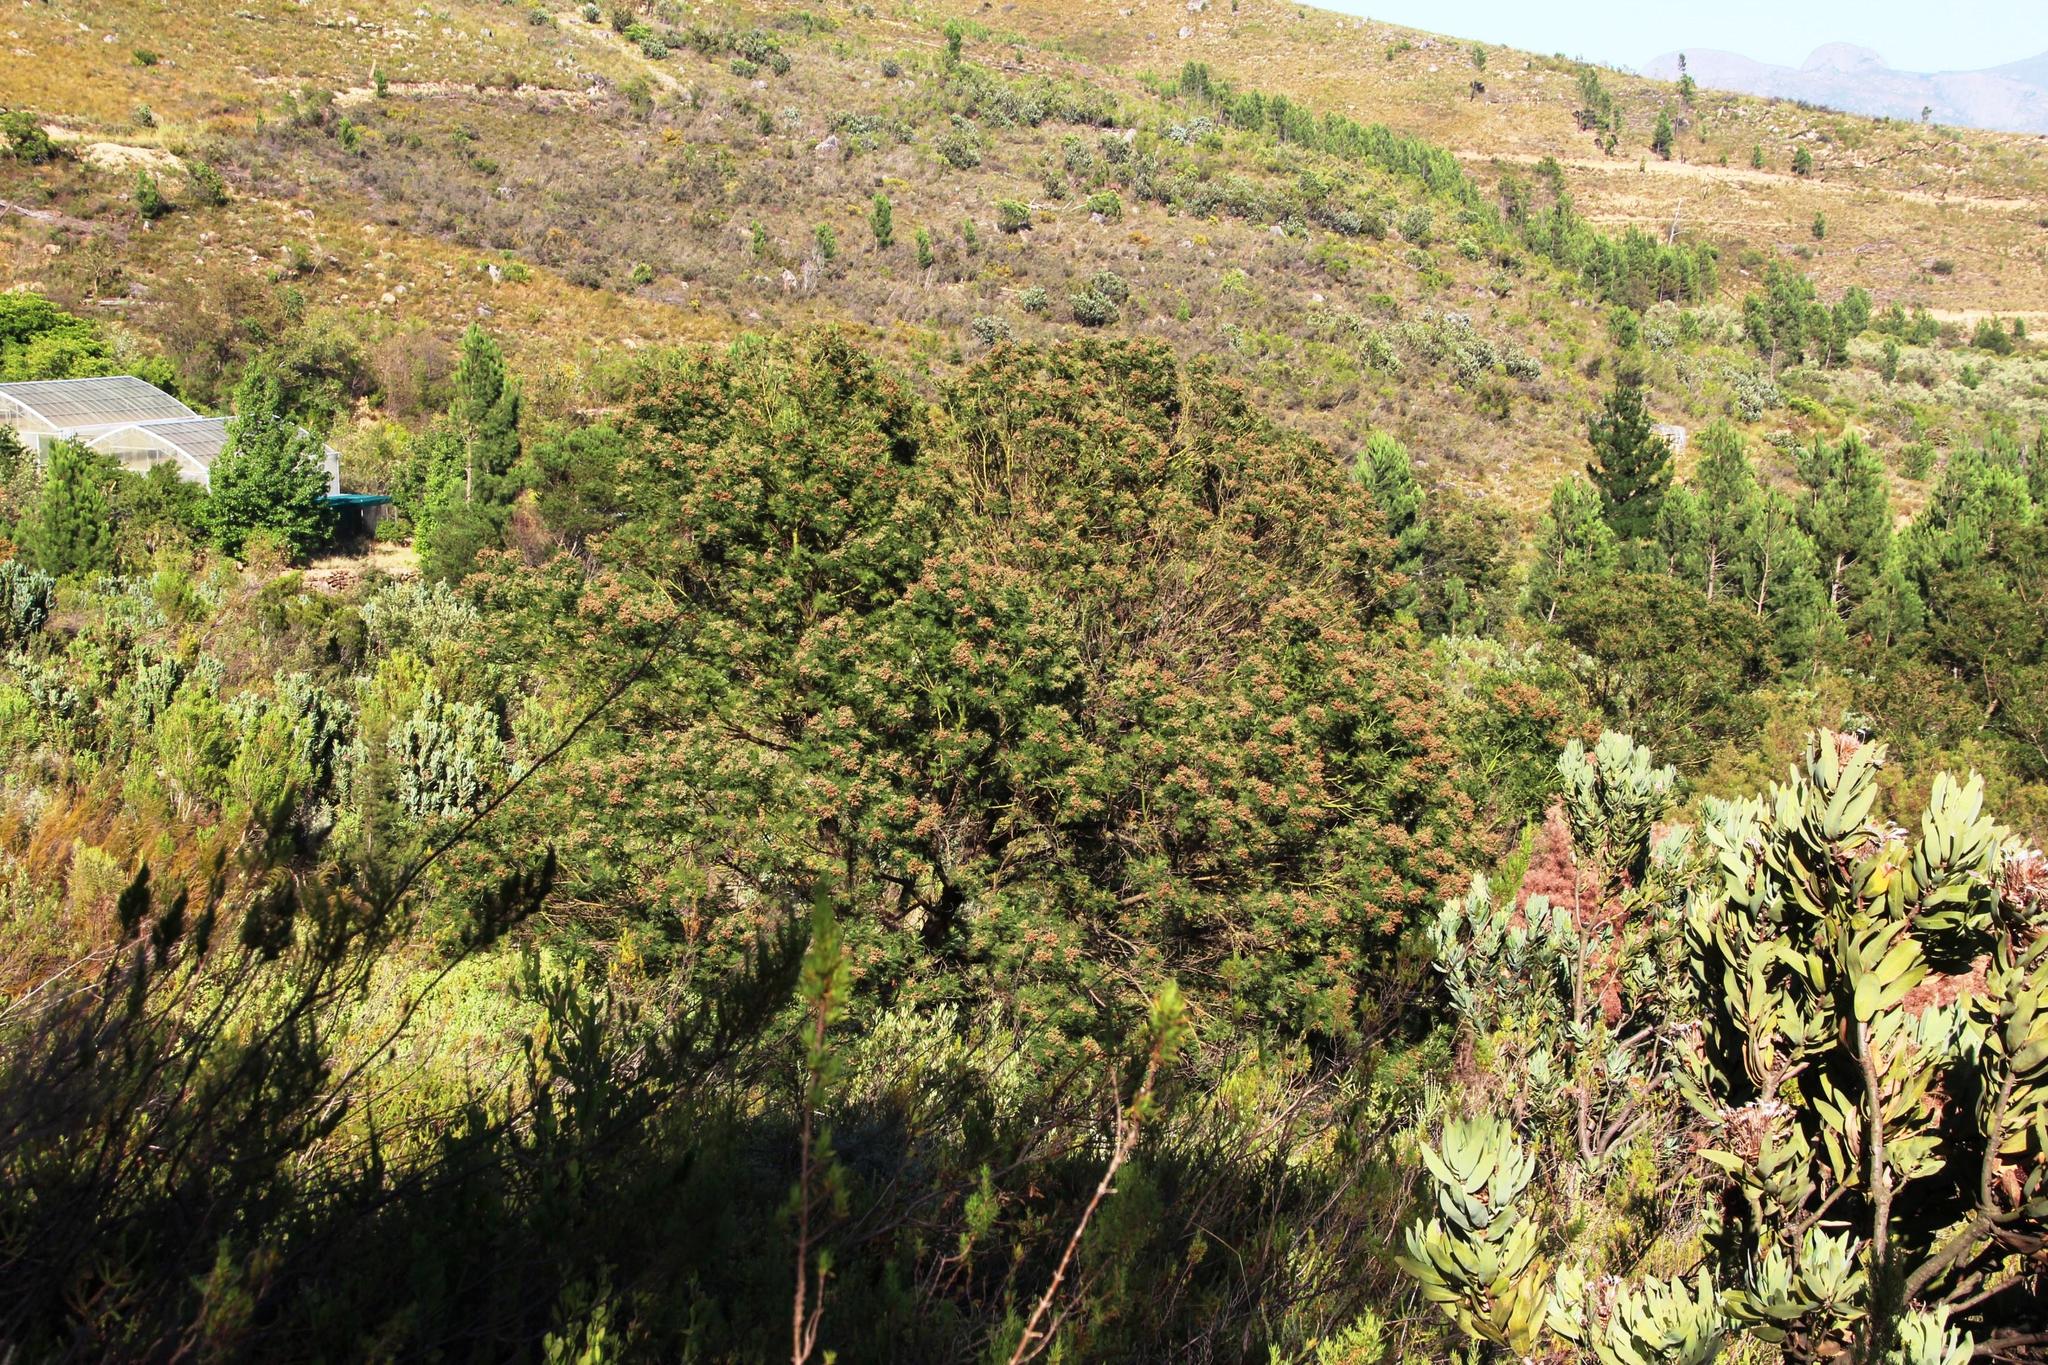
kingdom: Animalia
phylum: Arthropoda
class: Insecta
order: Diptera
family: Cecidomyiidae
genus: Dasineura
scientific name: Dasineura rubiformis
